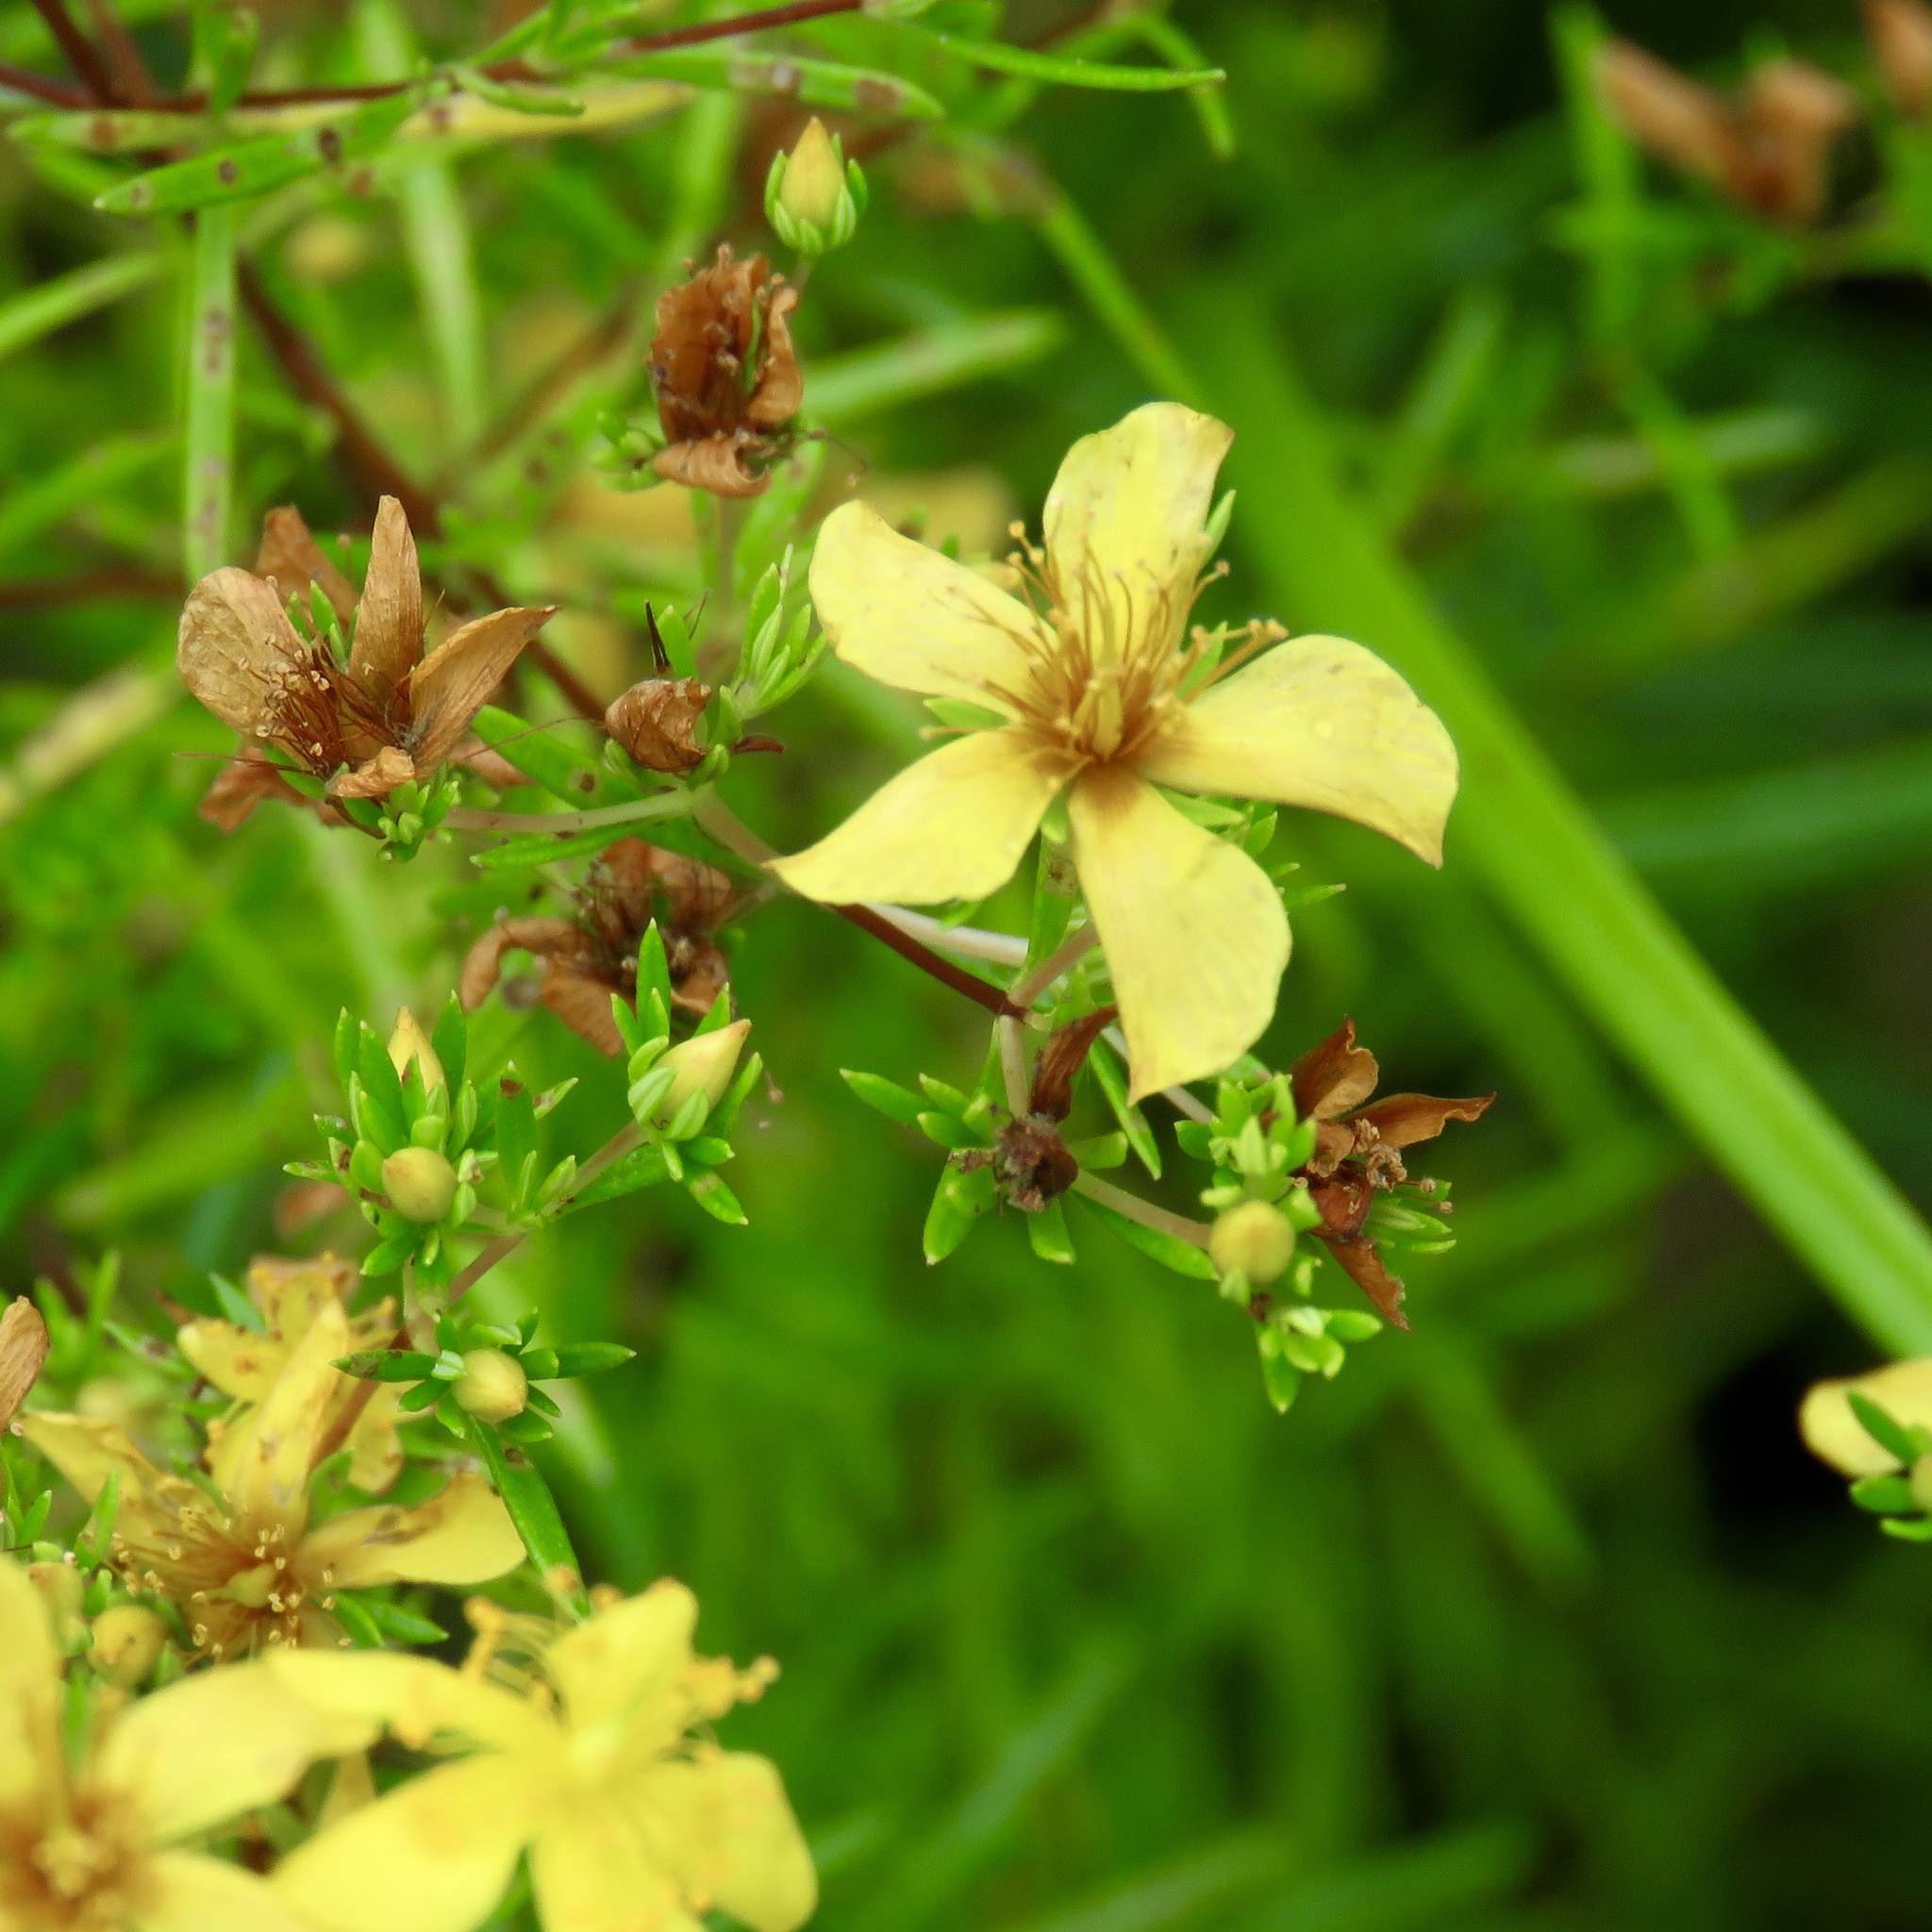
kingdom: Plantae
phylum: Tracheophyta
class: Magnoliopsida
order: Malpighiales
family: Hypericaceae
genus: Hypericum
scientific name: Hypericum galioides
